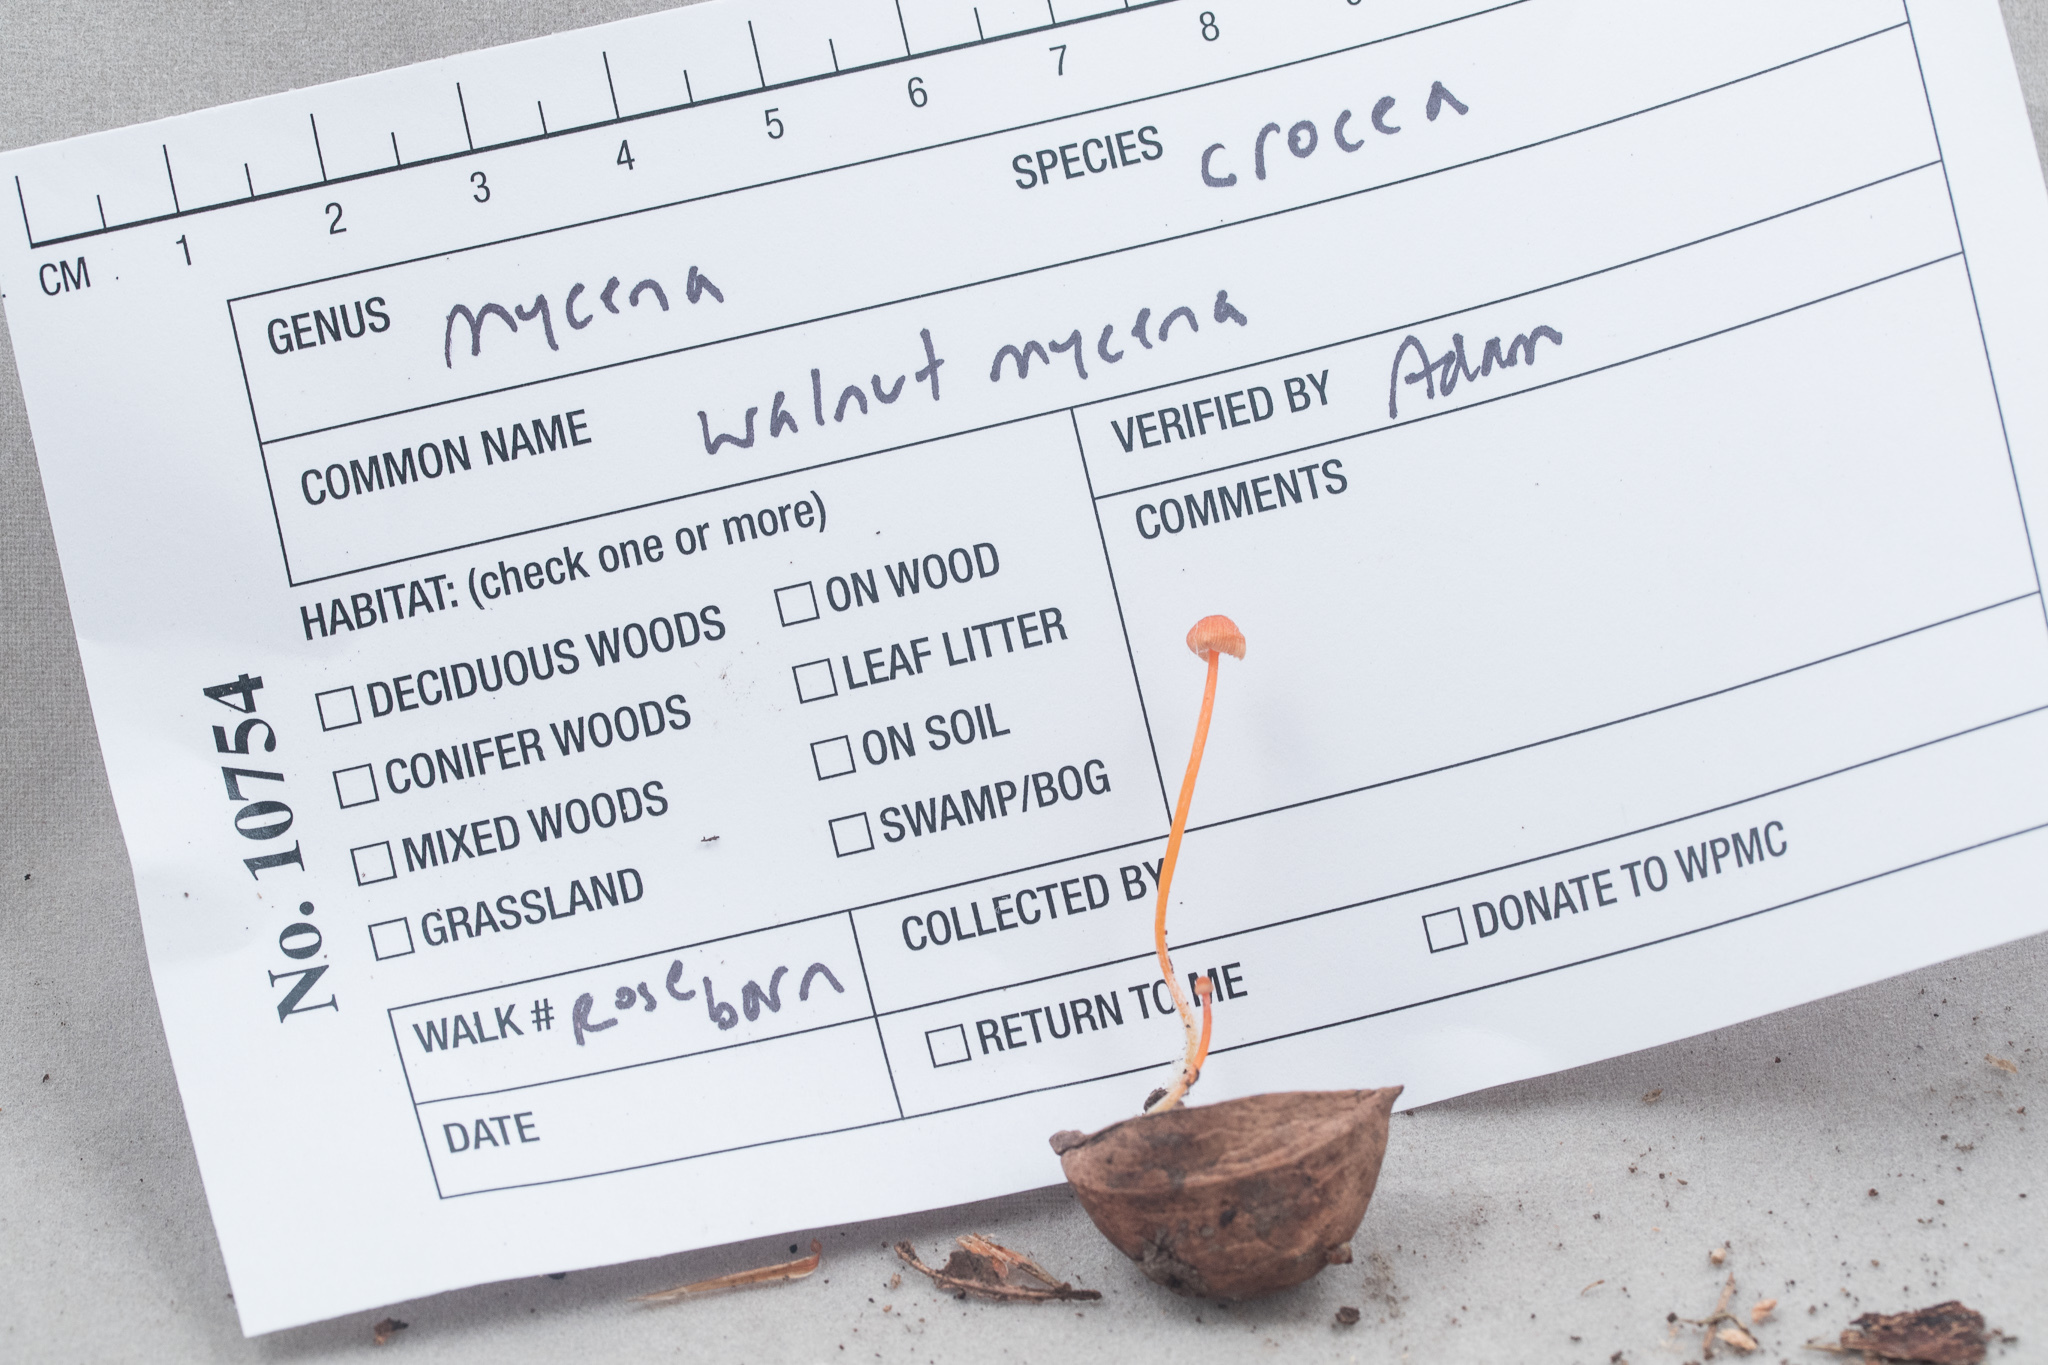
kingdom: Fungi
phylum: Basidiomycota
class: Agaricomycetes
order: Agaricales
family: Mycenaceae
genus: Mycena
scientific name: Mycena crocea
